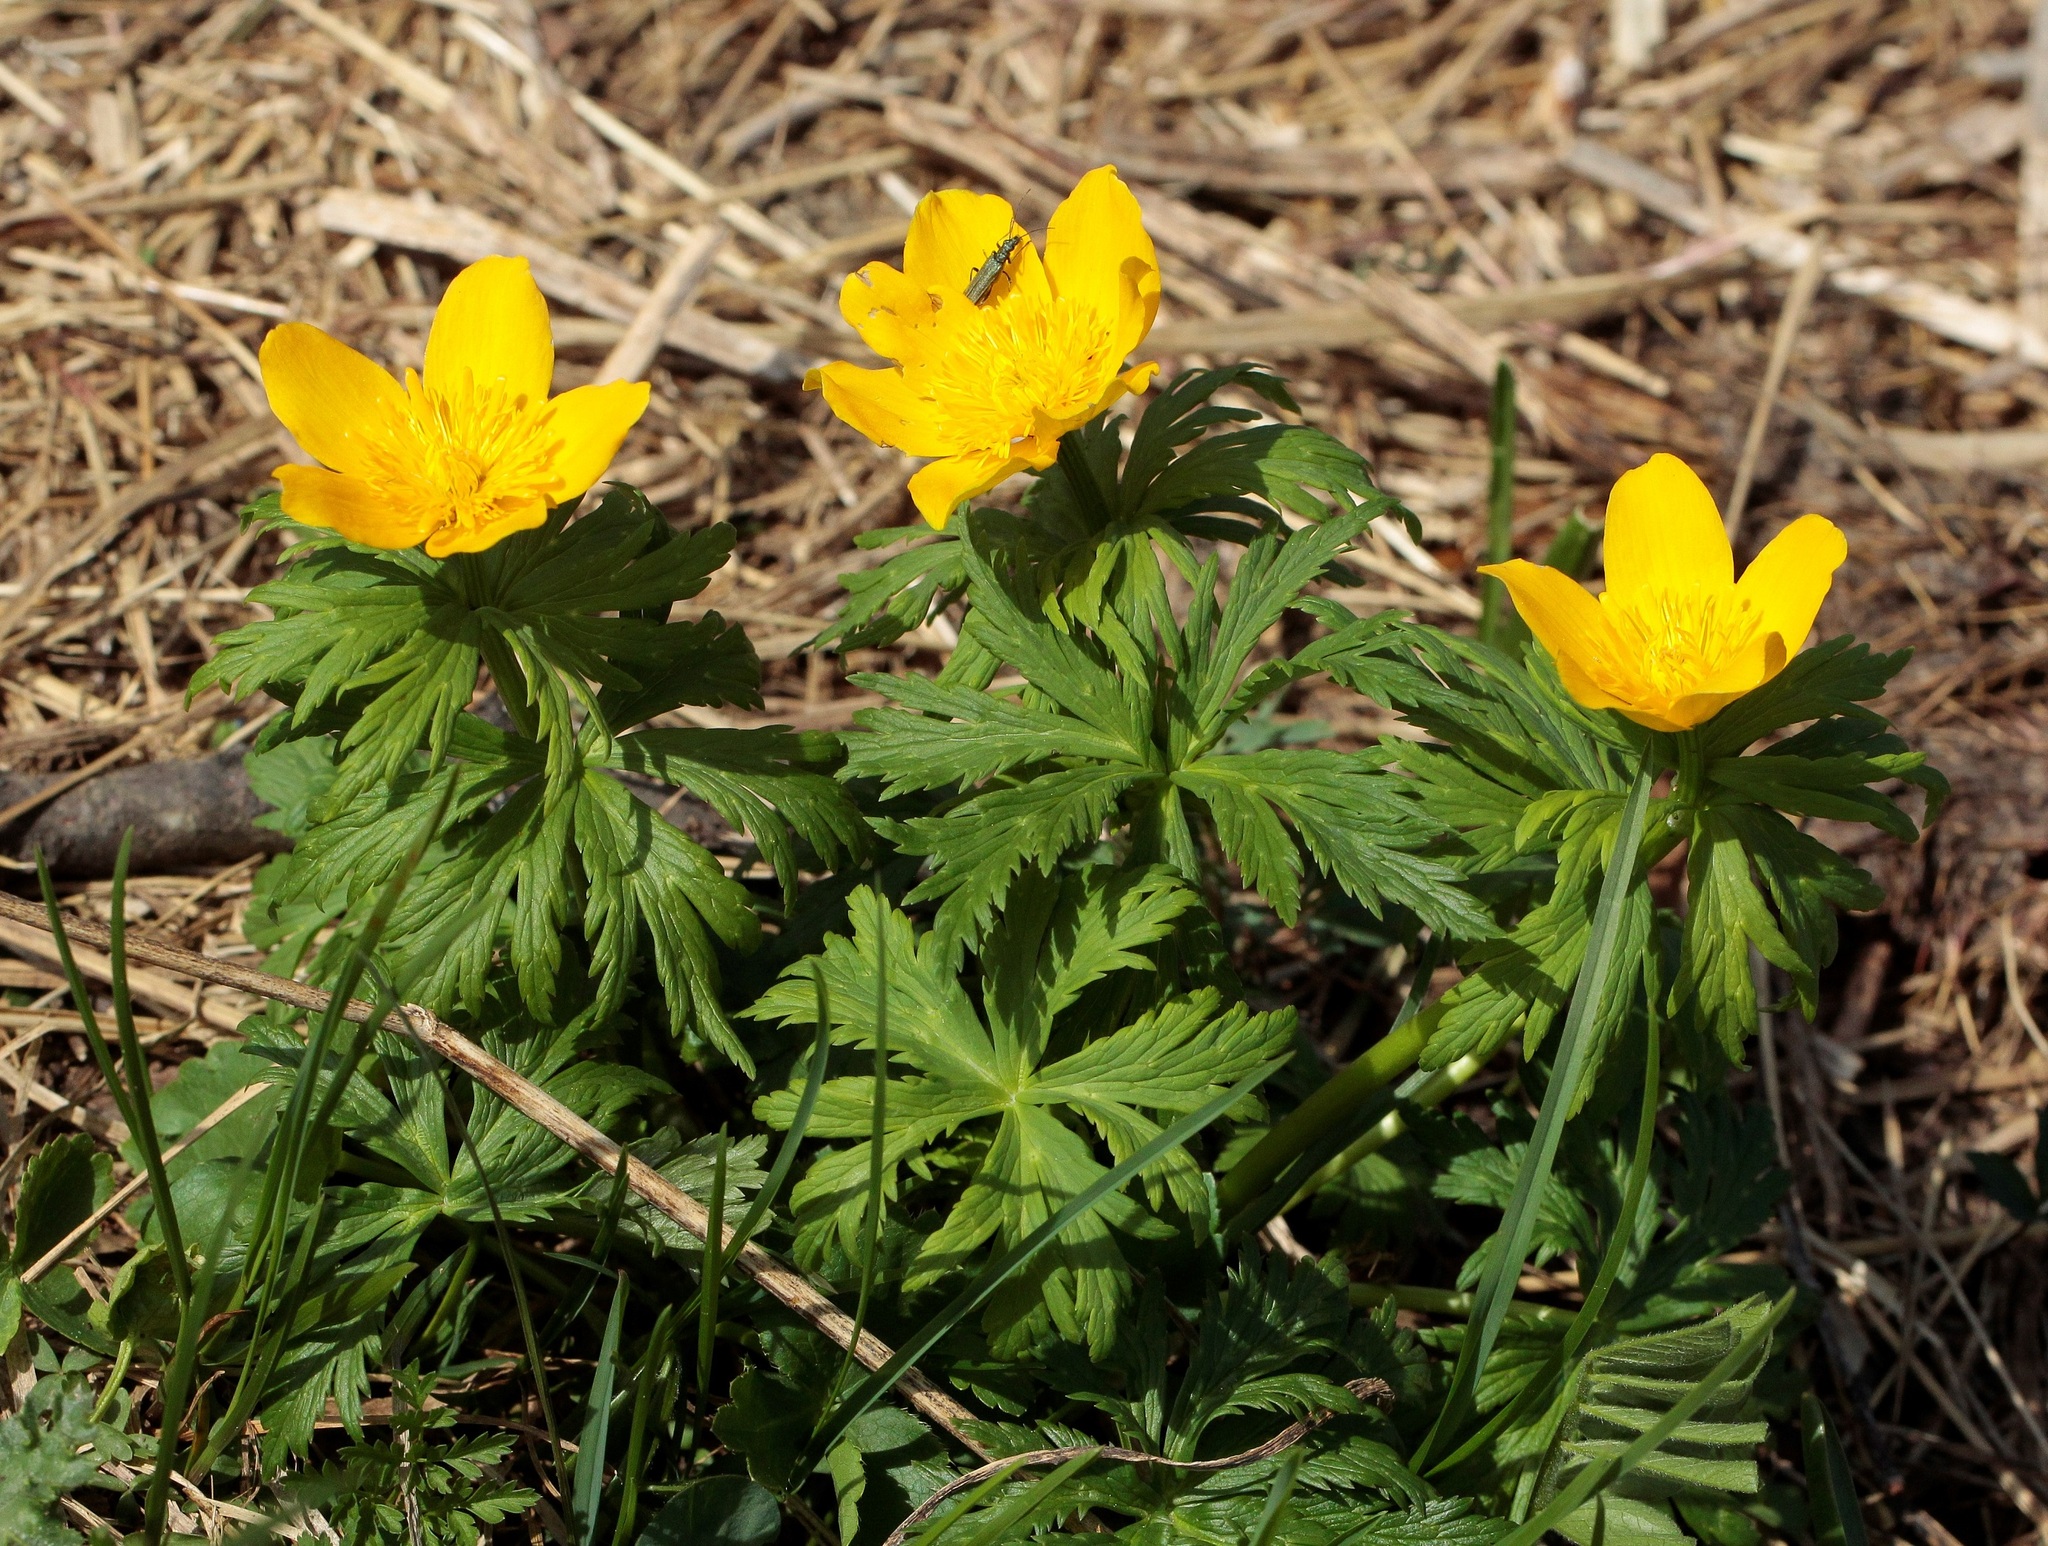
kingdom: Plantae
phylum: Tracheophyta
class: Magnoliopsida
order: Ranunculales
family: Ranunculaceae
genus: Trollius
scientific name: Trollius ranunculinus
